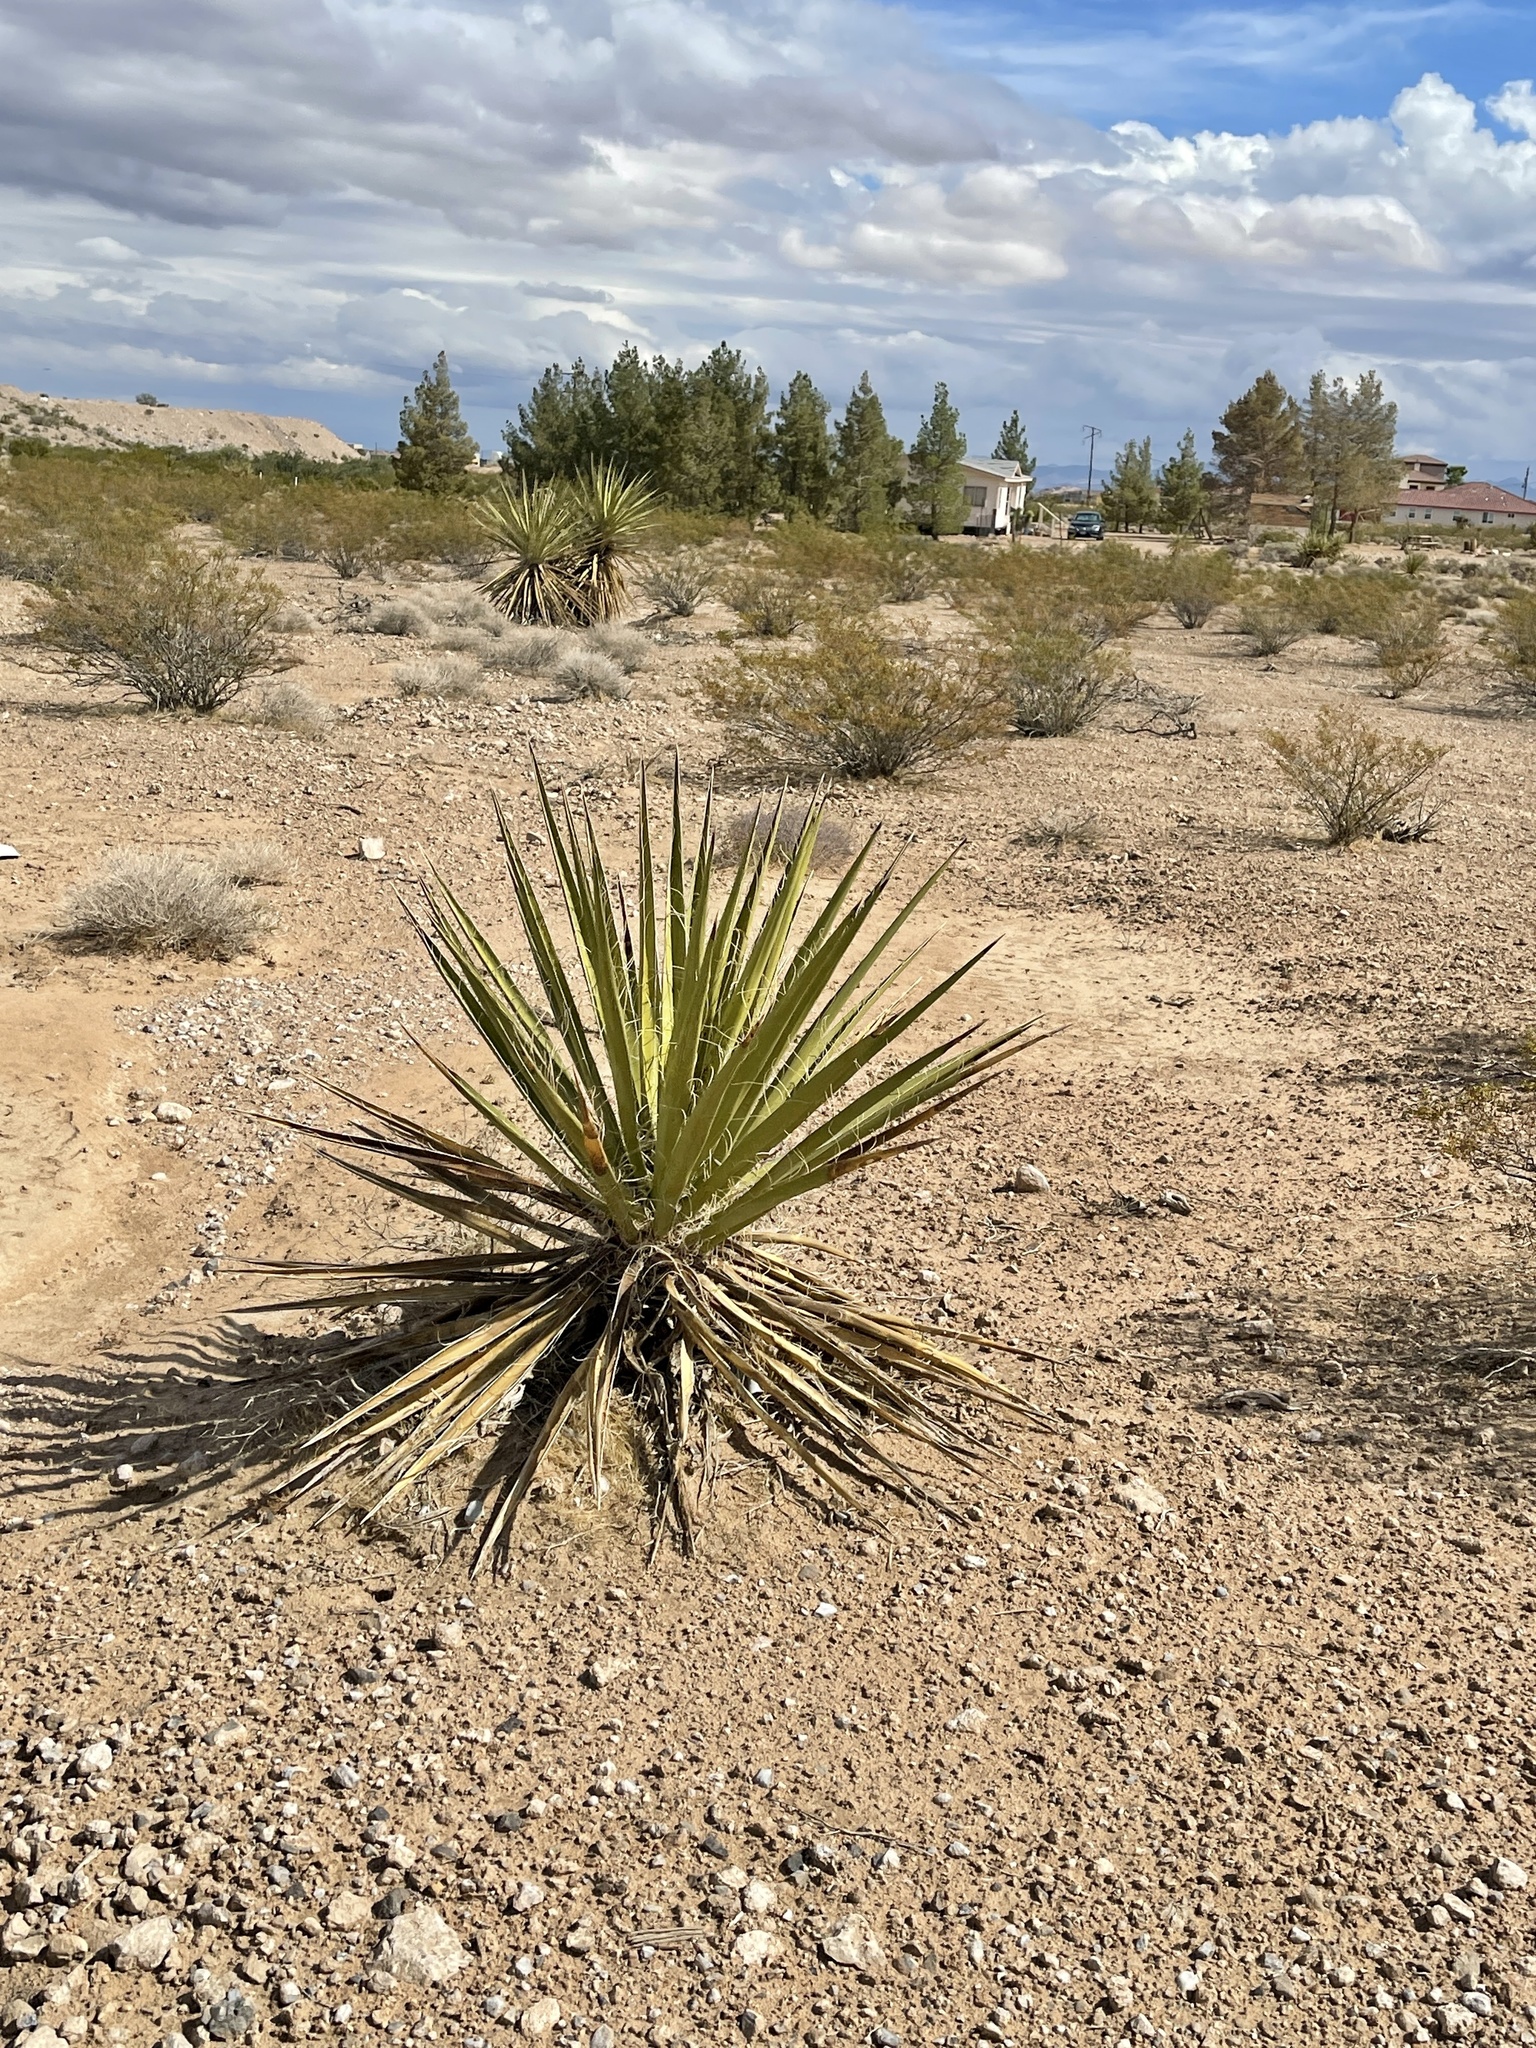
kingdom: Plantae
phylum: Tracheophyta
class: Liliopsida
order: Asparagales
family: Asparagaceae
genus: Yucca
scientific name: Yucca schidigera
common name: Mojave yucca
